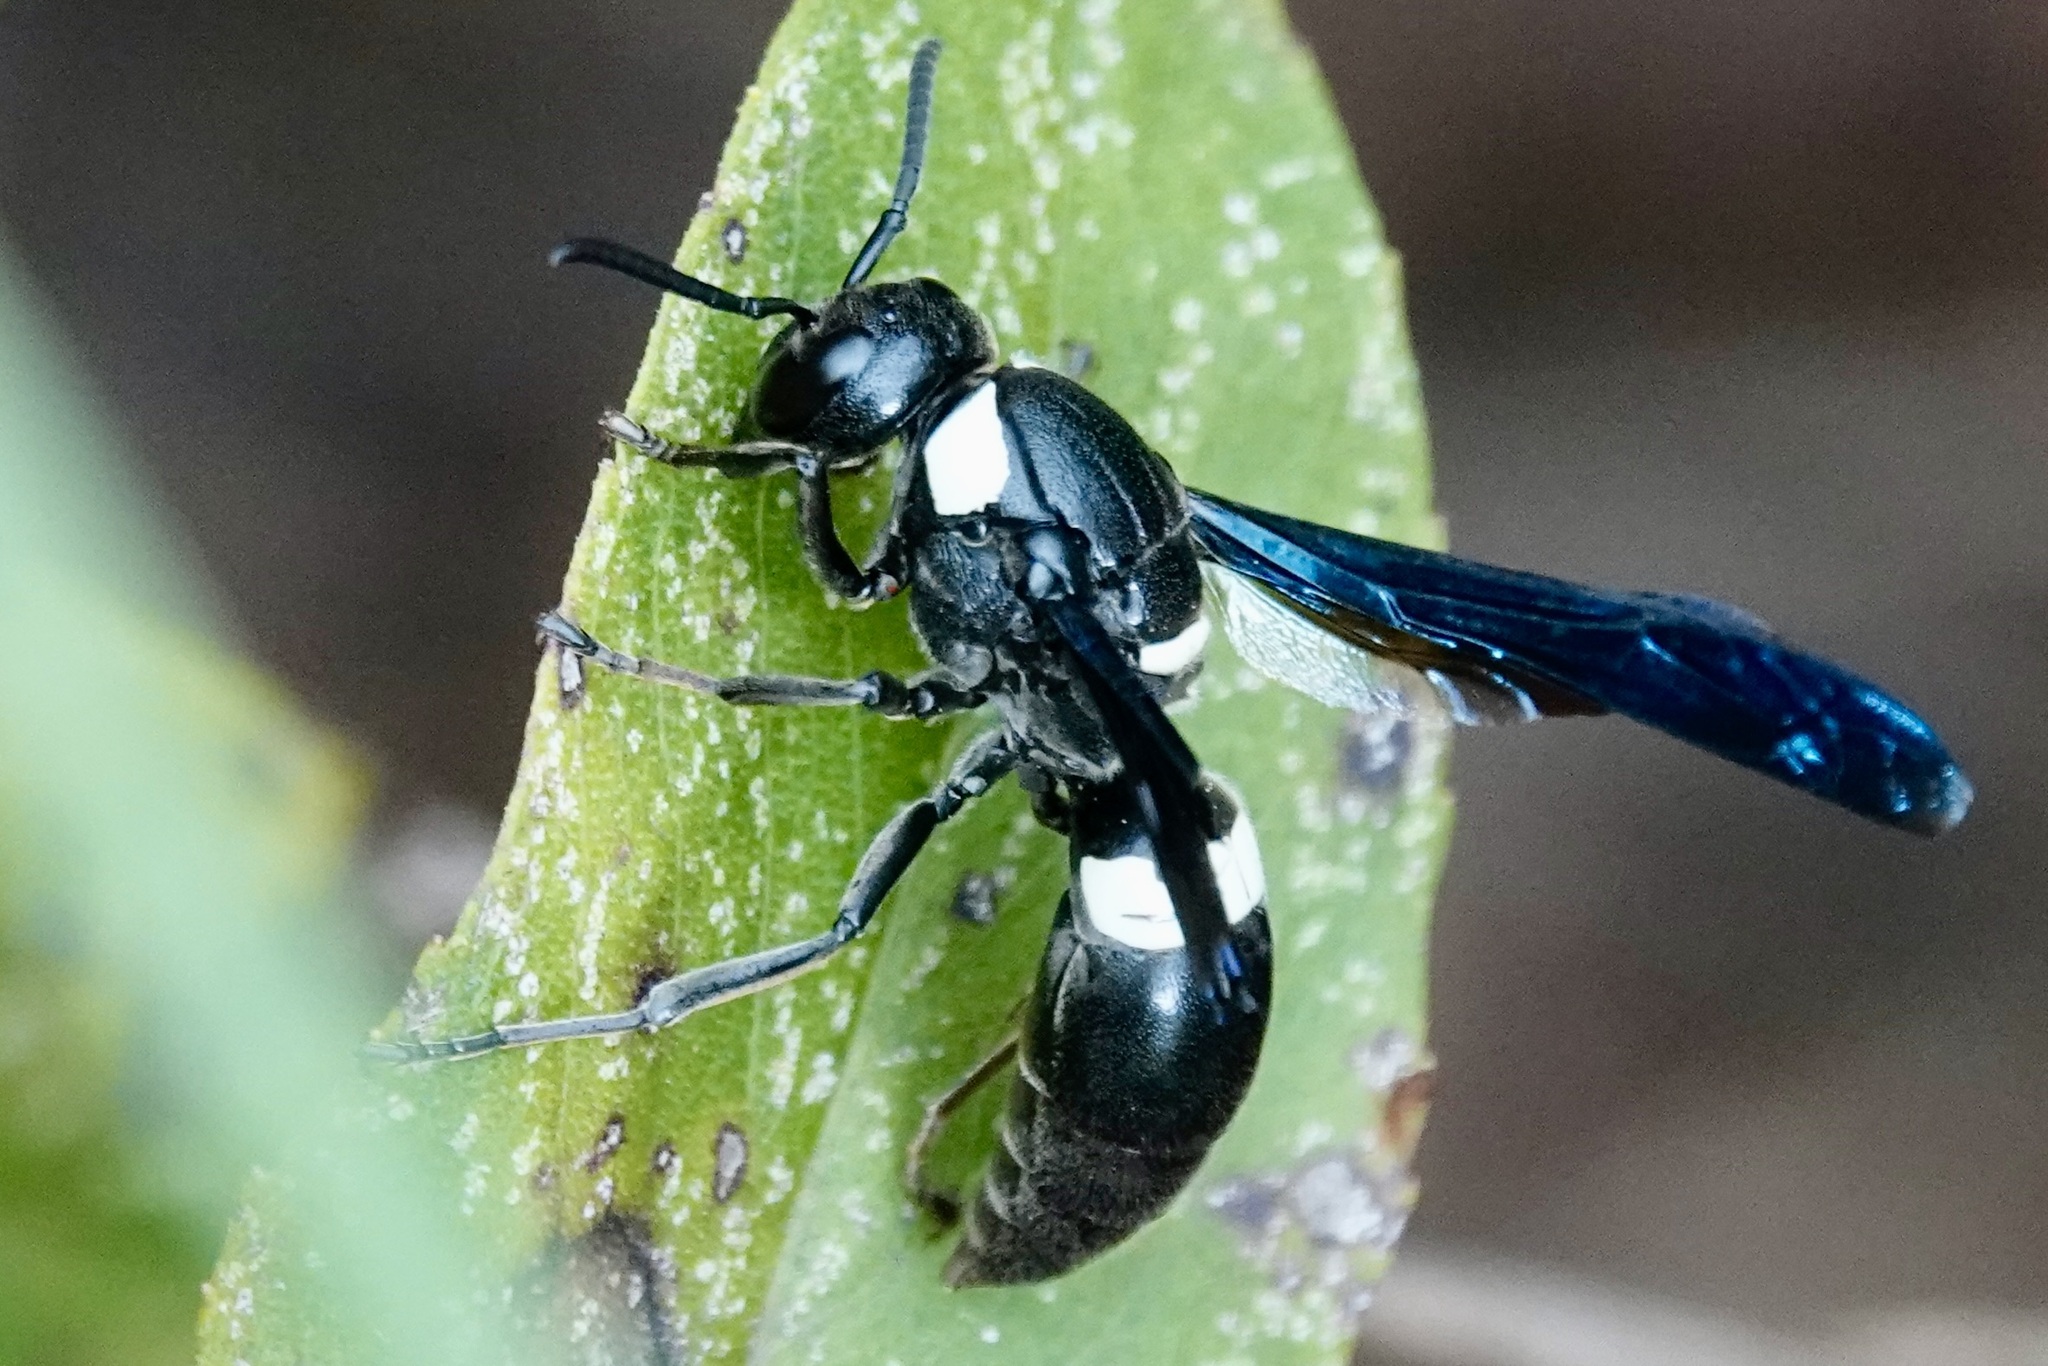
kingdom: Animalia
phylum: Arthropoda
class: Insecta
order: Hymenoptera
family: Eumenidae
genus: Monobia
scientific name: Monobia quadridens
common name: Four-toothed mason wasp
